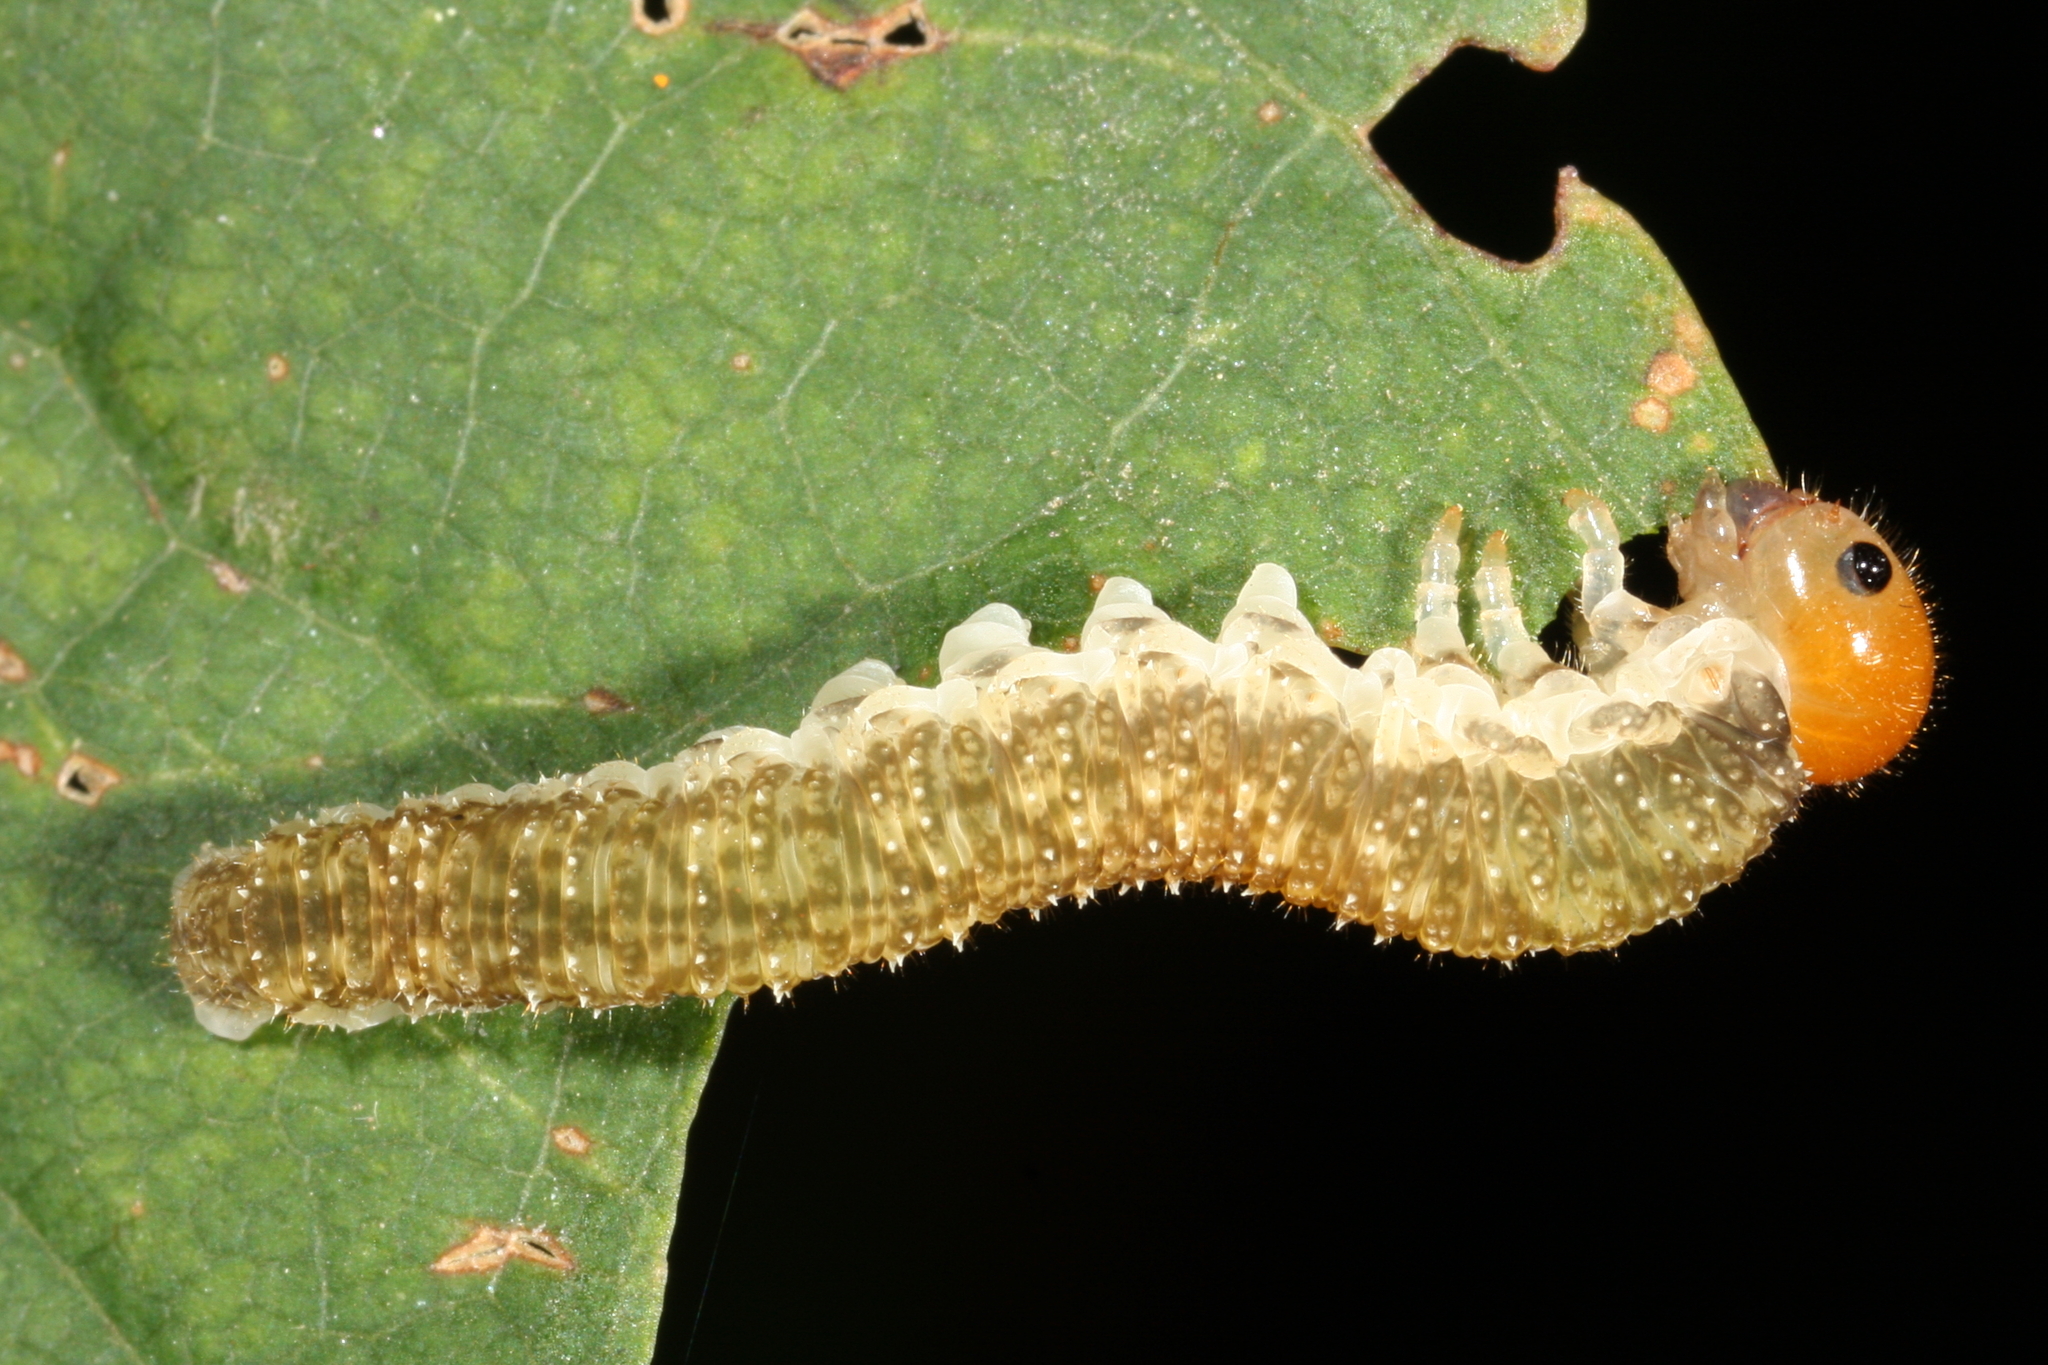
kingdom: Animalia
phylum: Arthropoda
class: Insecta
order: Hymenoptera
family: Tenthredinidae
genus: Tenthredo
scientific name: Tenthredo livida
